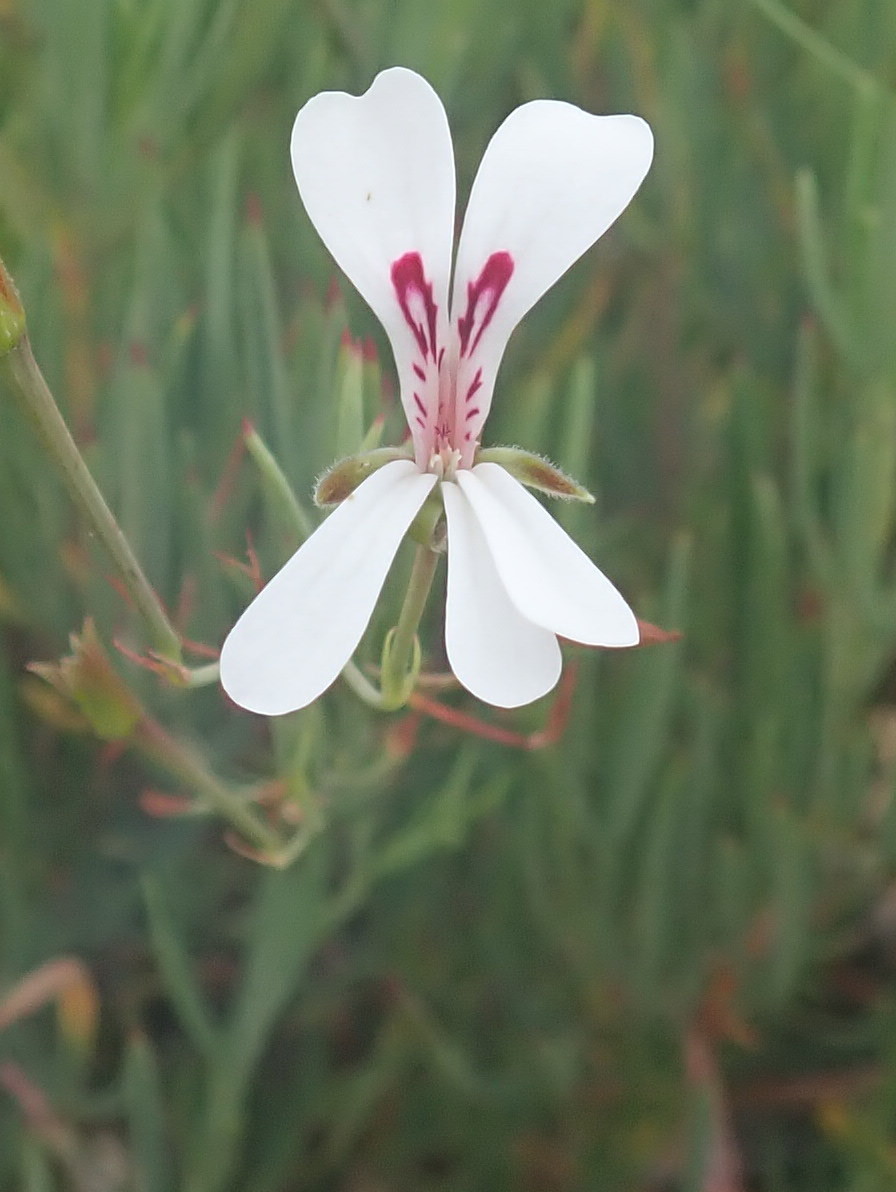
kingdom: Plantae
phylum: Tracheophyta
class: Magnoliopsida
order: Geraniales
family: Geraniaceae
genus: Pelargonium
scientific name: Pelargonium laevigatum
